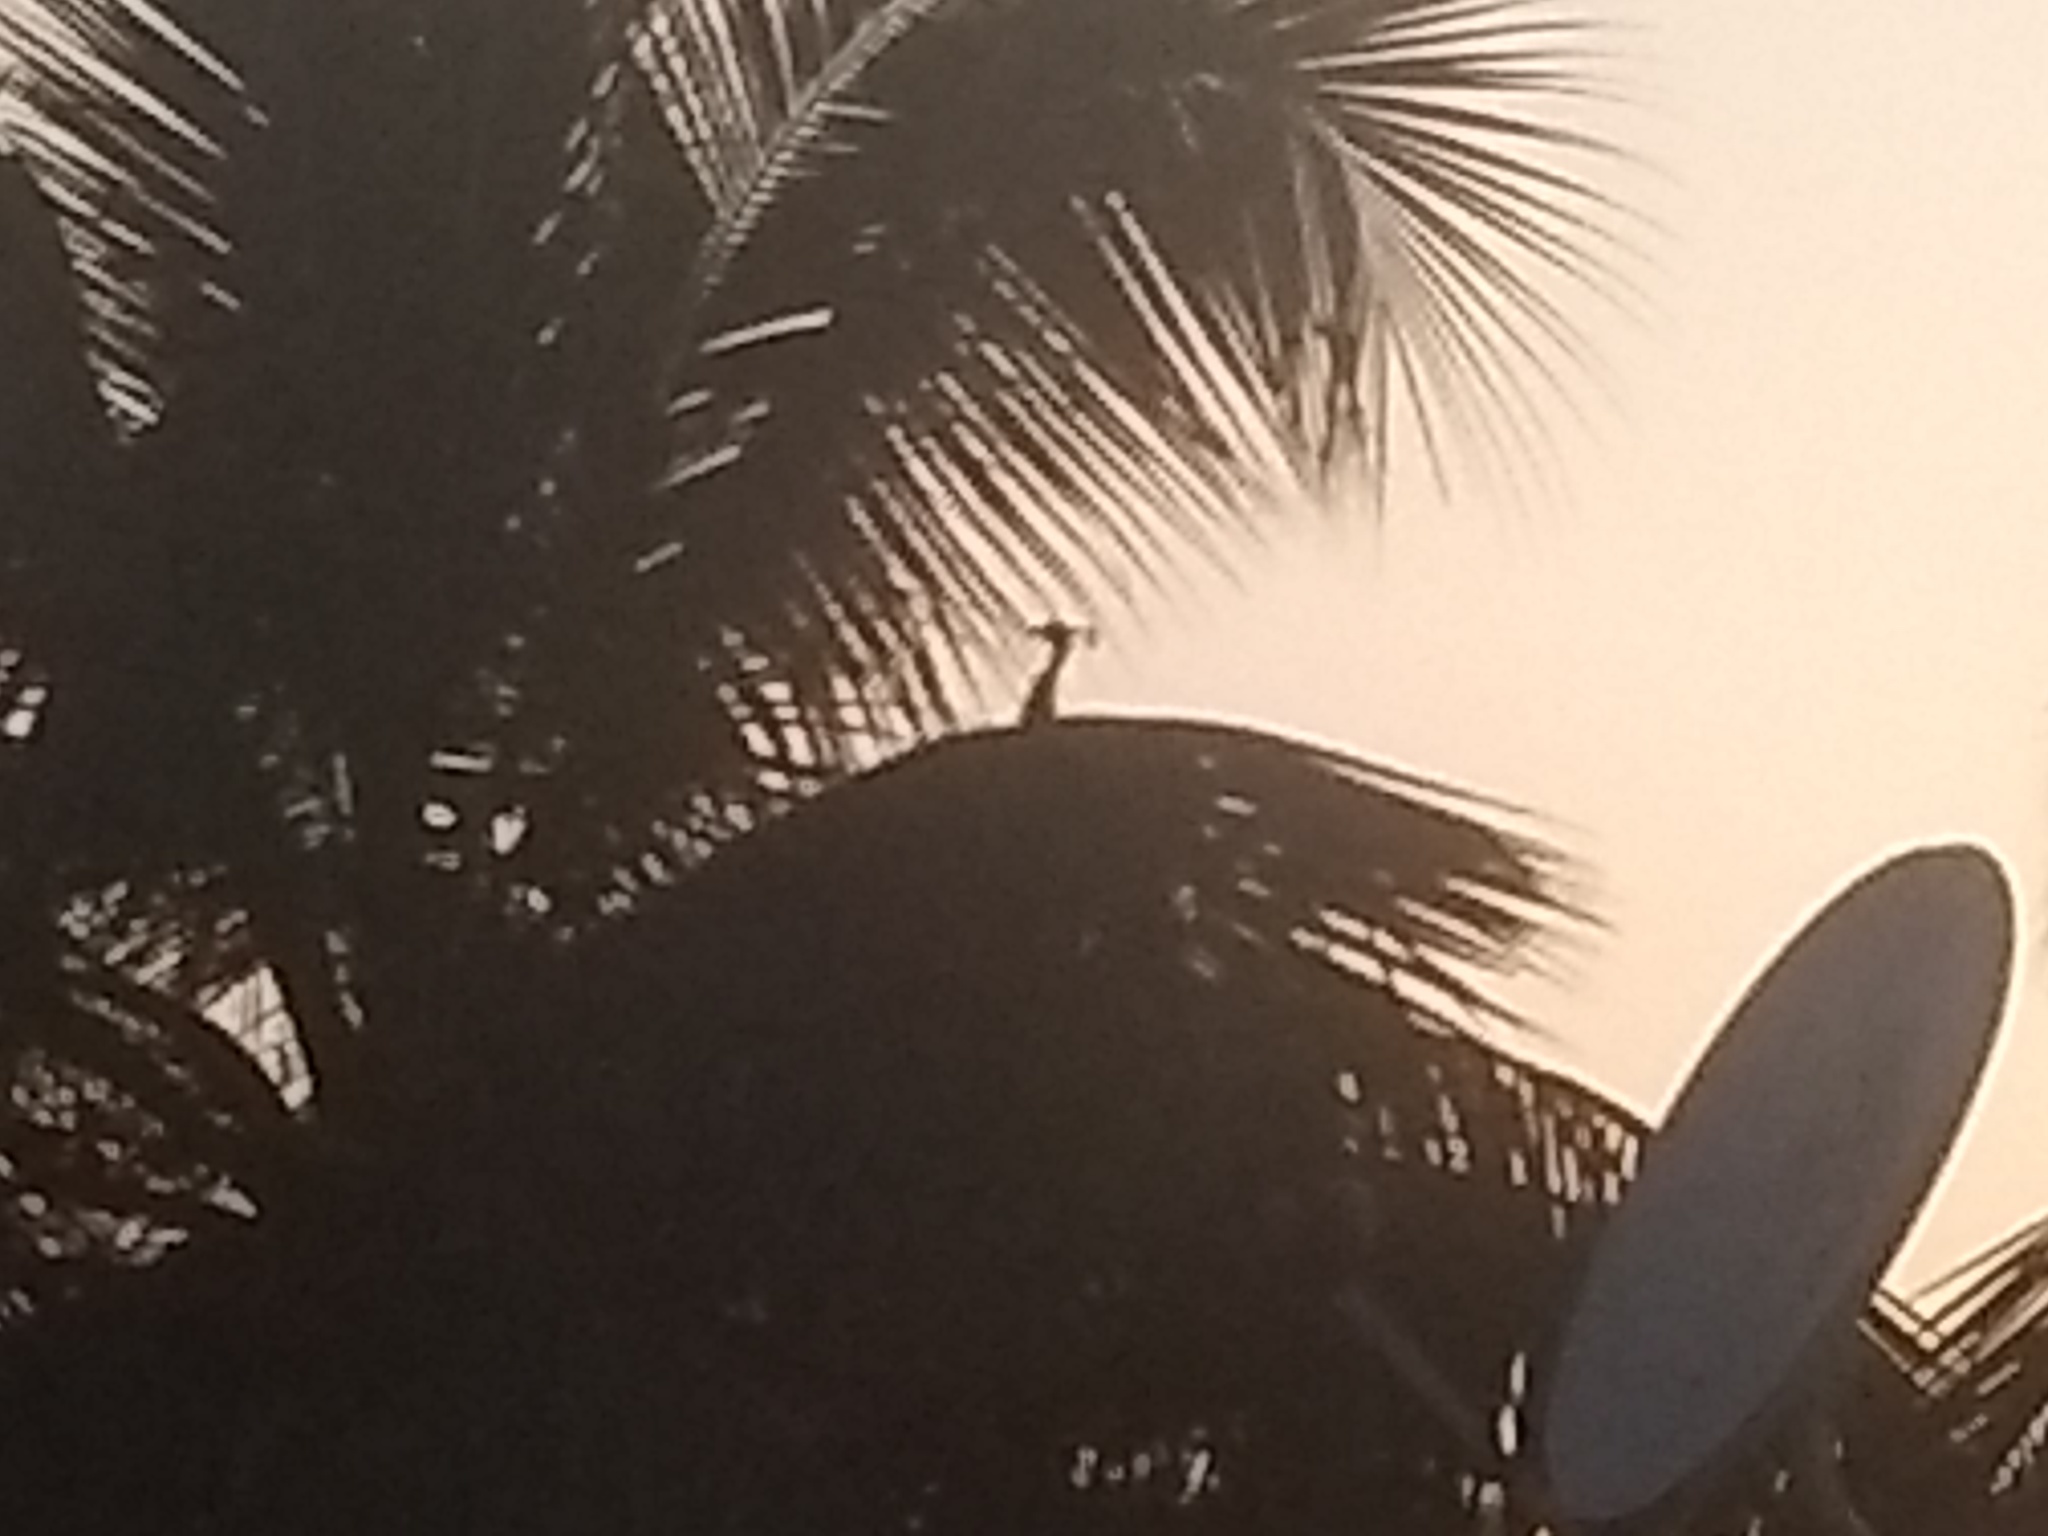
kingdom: Animalia
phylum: Chordata
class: Aves
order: Galliformes
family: Phasianidae
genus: Pavo
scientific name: Pavo cristatus
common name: Indian peafowl
